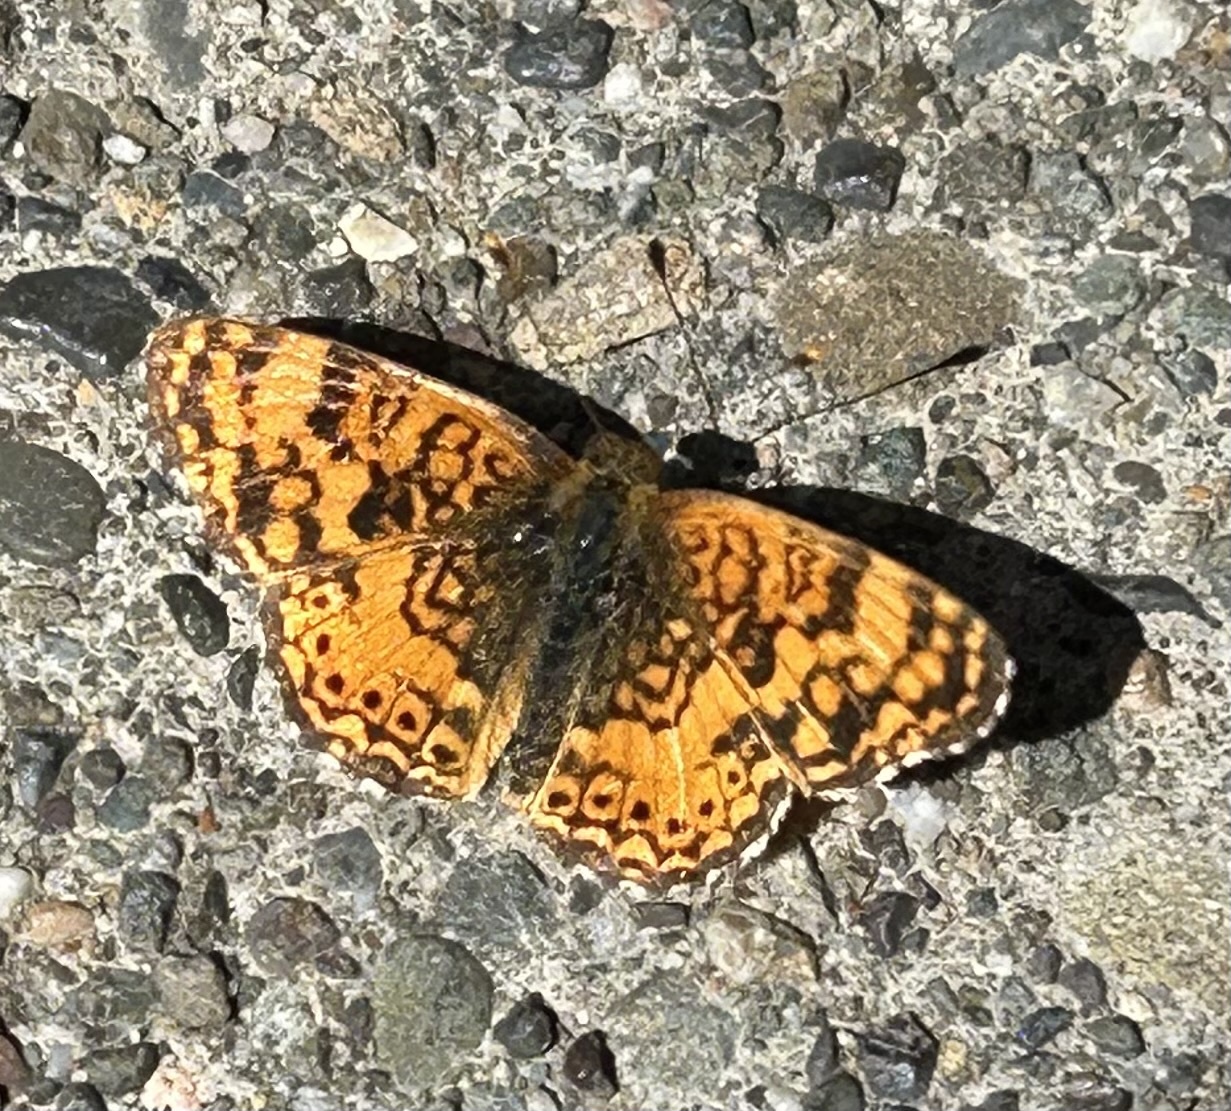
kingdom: Animalia
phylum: Arthropoda
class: Insecta
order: Lepidoptera
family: Nymphalidae
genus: Eresia
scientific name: Eresia aveyrona
